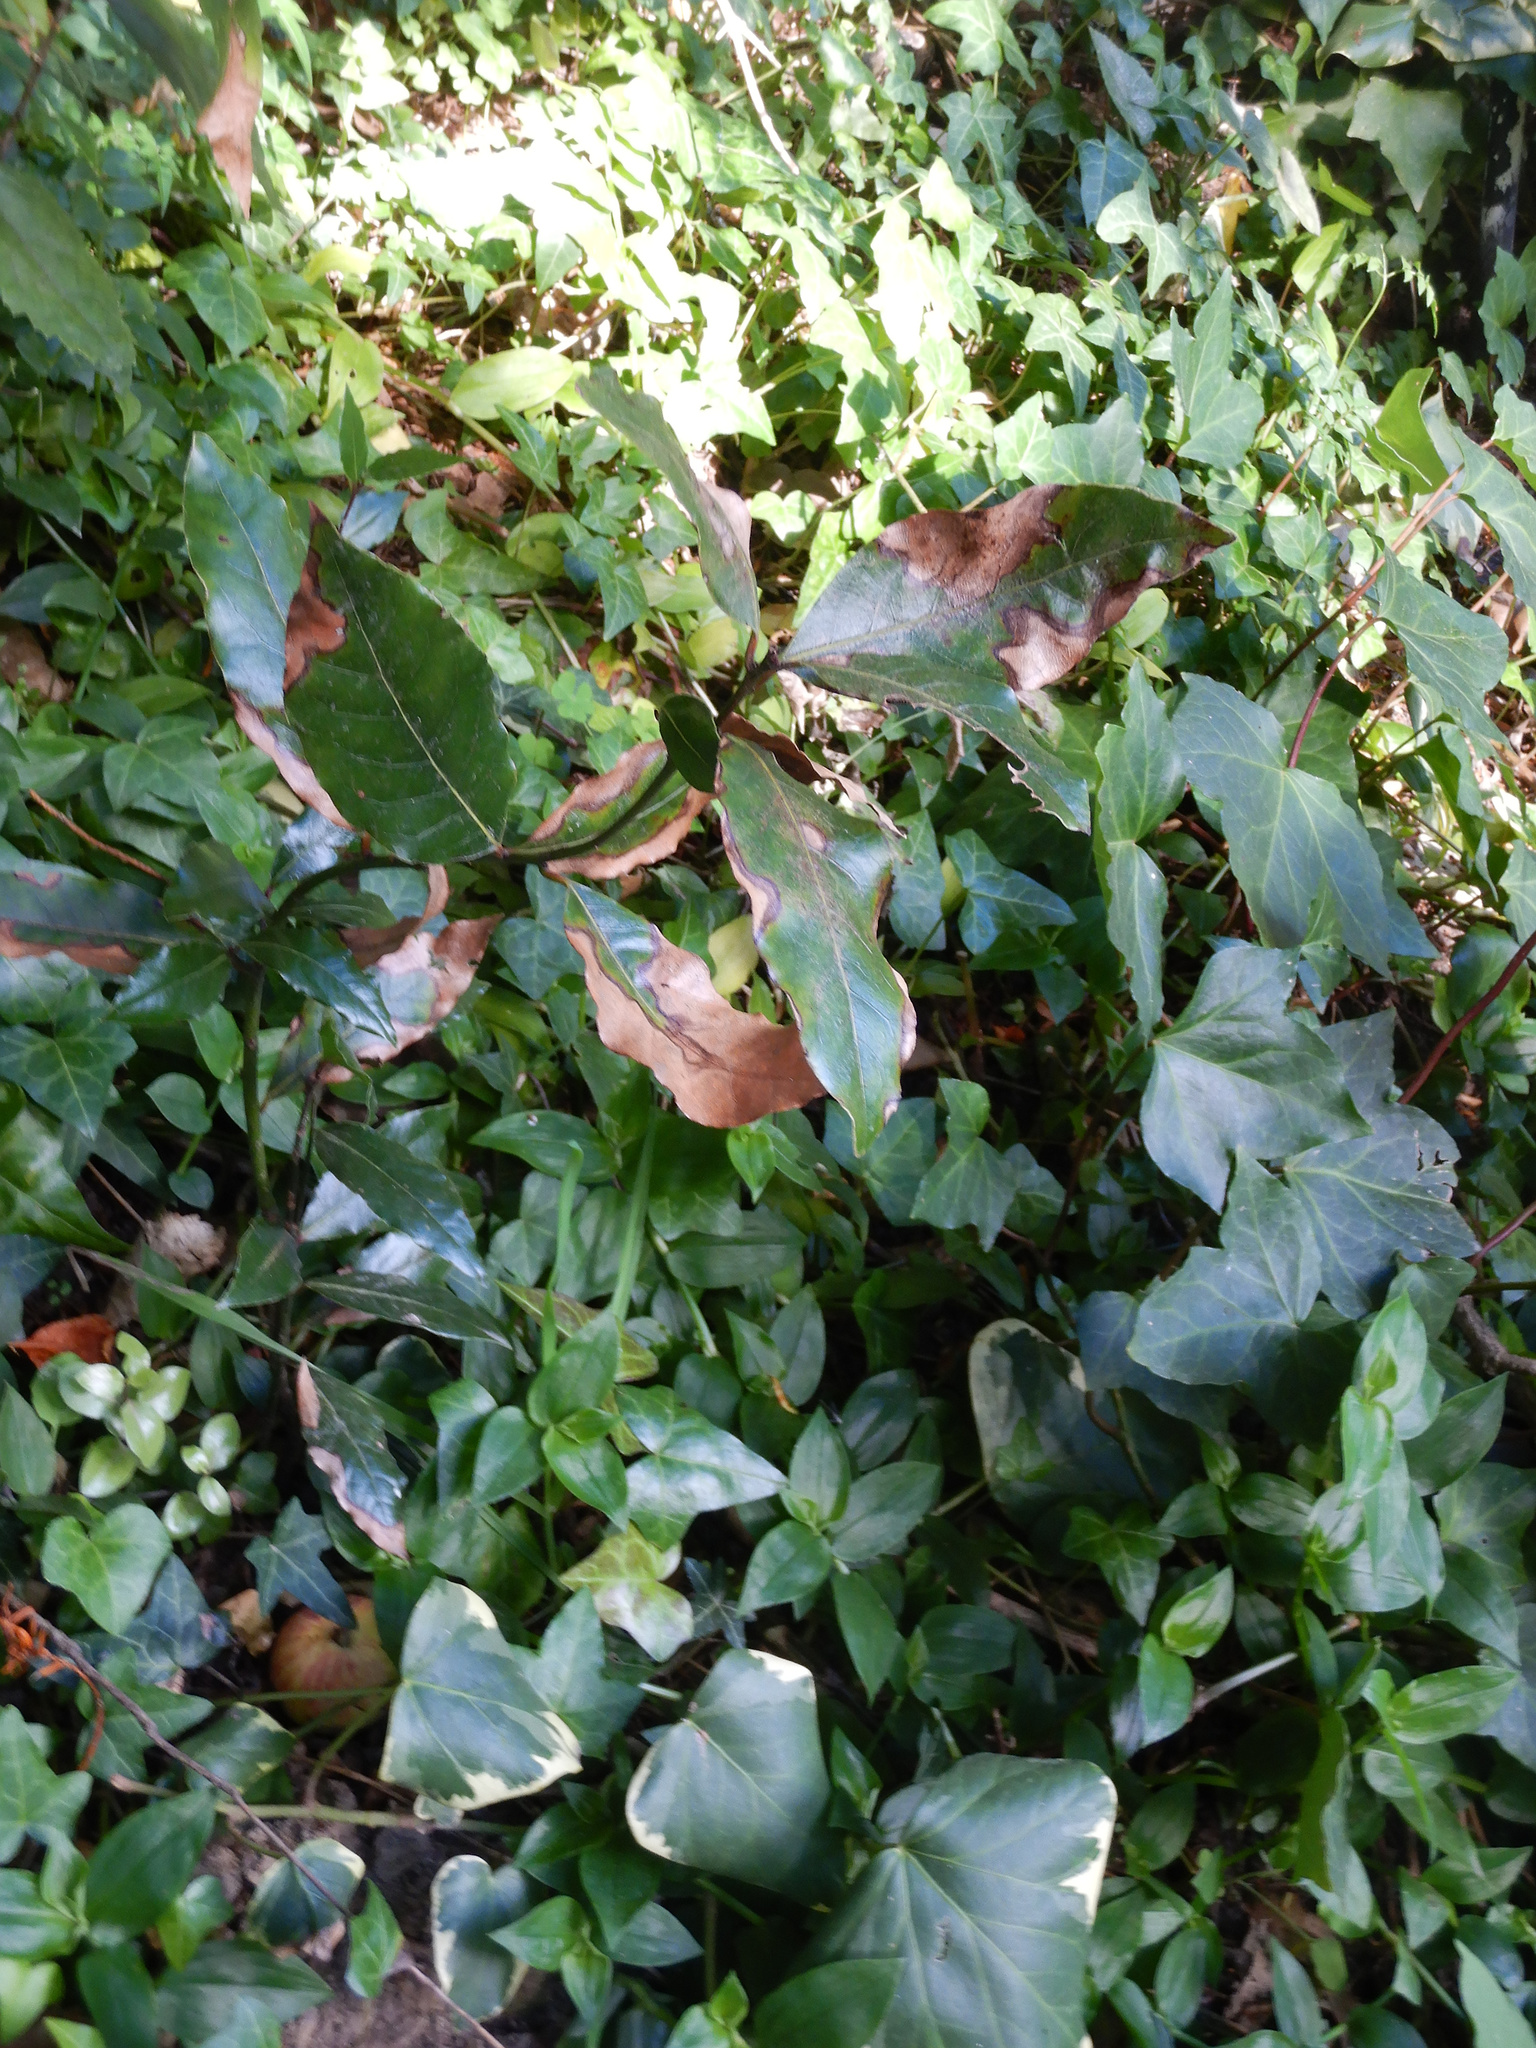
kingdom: Plantae
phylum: Tracheophyta
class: Magnoliopsida
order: Laurales
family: Lauraceae
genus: Laurus
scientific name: Laurus nobilis
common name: Bay
